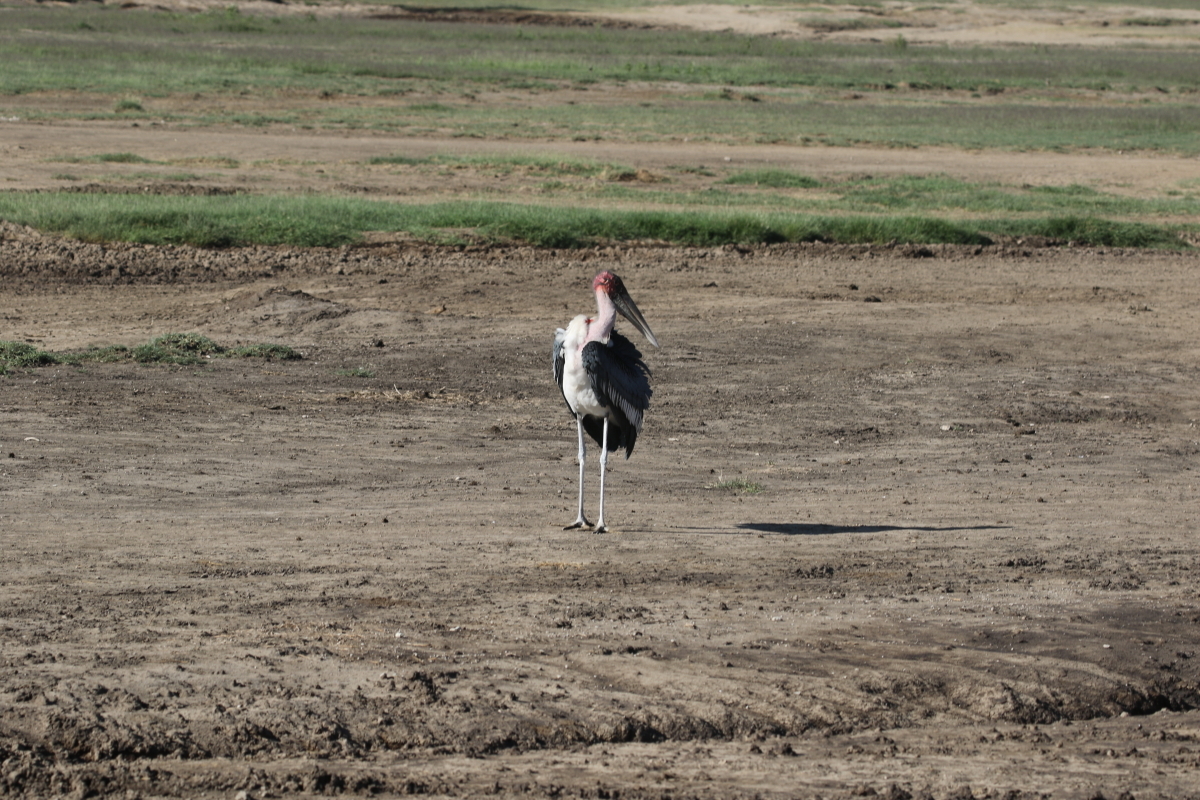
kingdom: Animalia
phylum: Chordata
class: Aves
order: Ciconiiformes
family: Ciconiidae
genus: Leptoptilos
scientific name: Leptoptilos crumenifer
